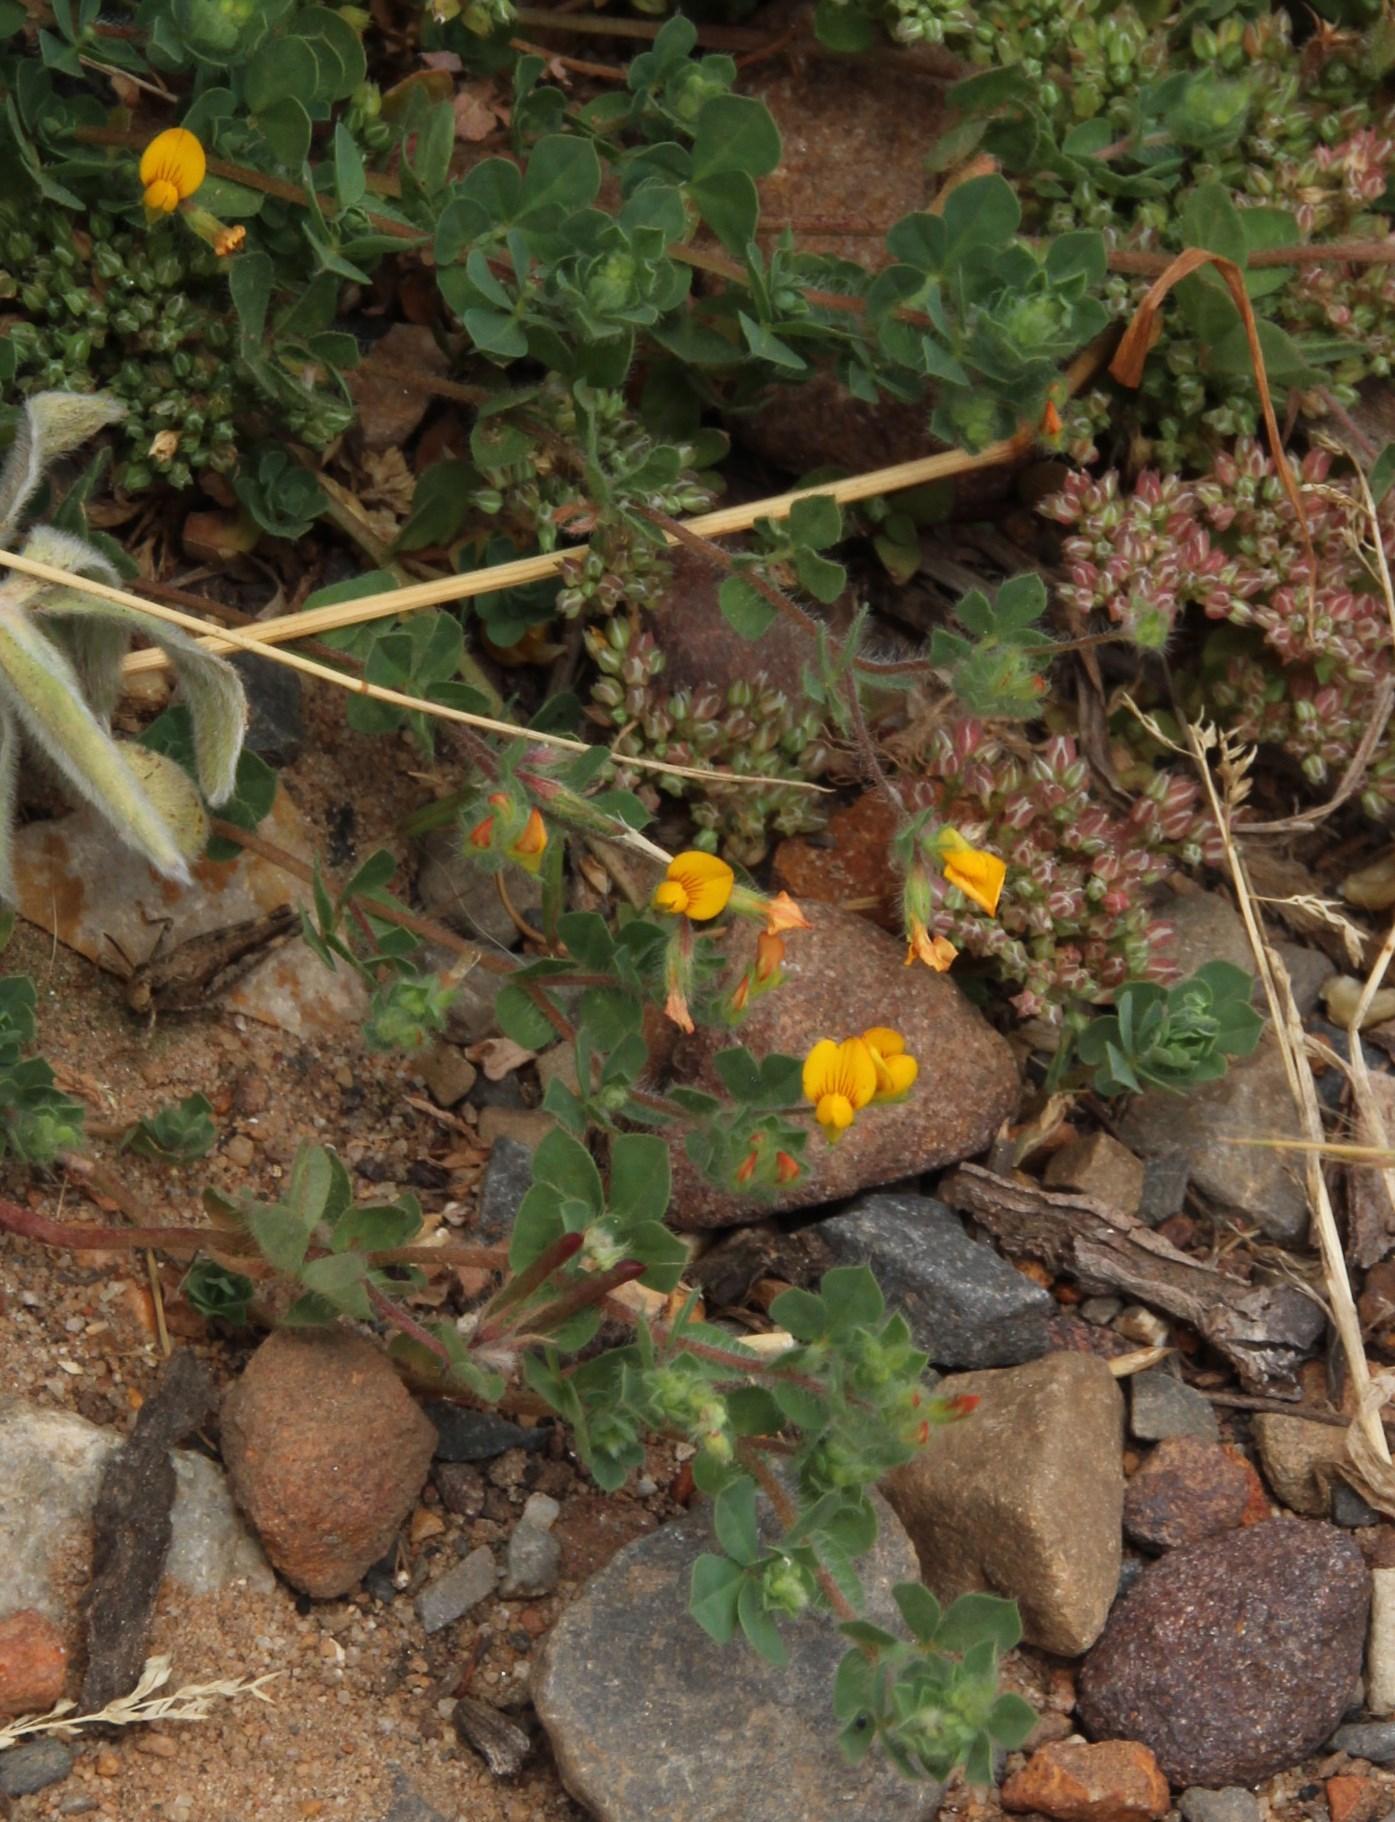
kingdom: Plantae
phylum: Tracheophyta
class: Magnoliopsida
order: Fabales
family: Fabaceae
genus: Lotus
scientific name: Lotus subbiflorus
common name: Hairy bird's-foot trefoil
